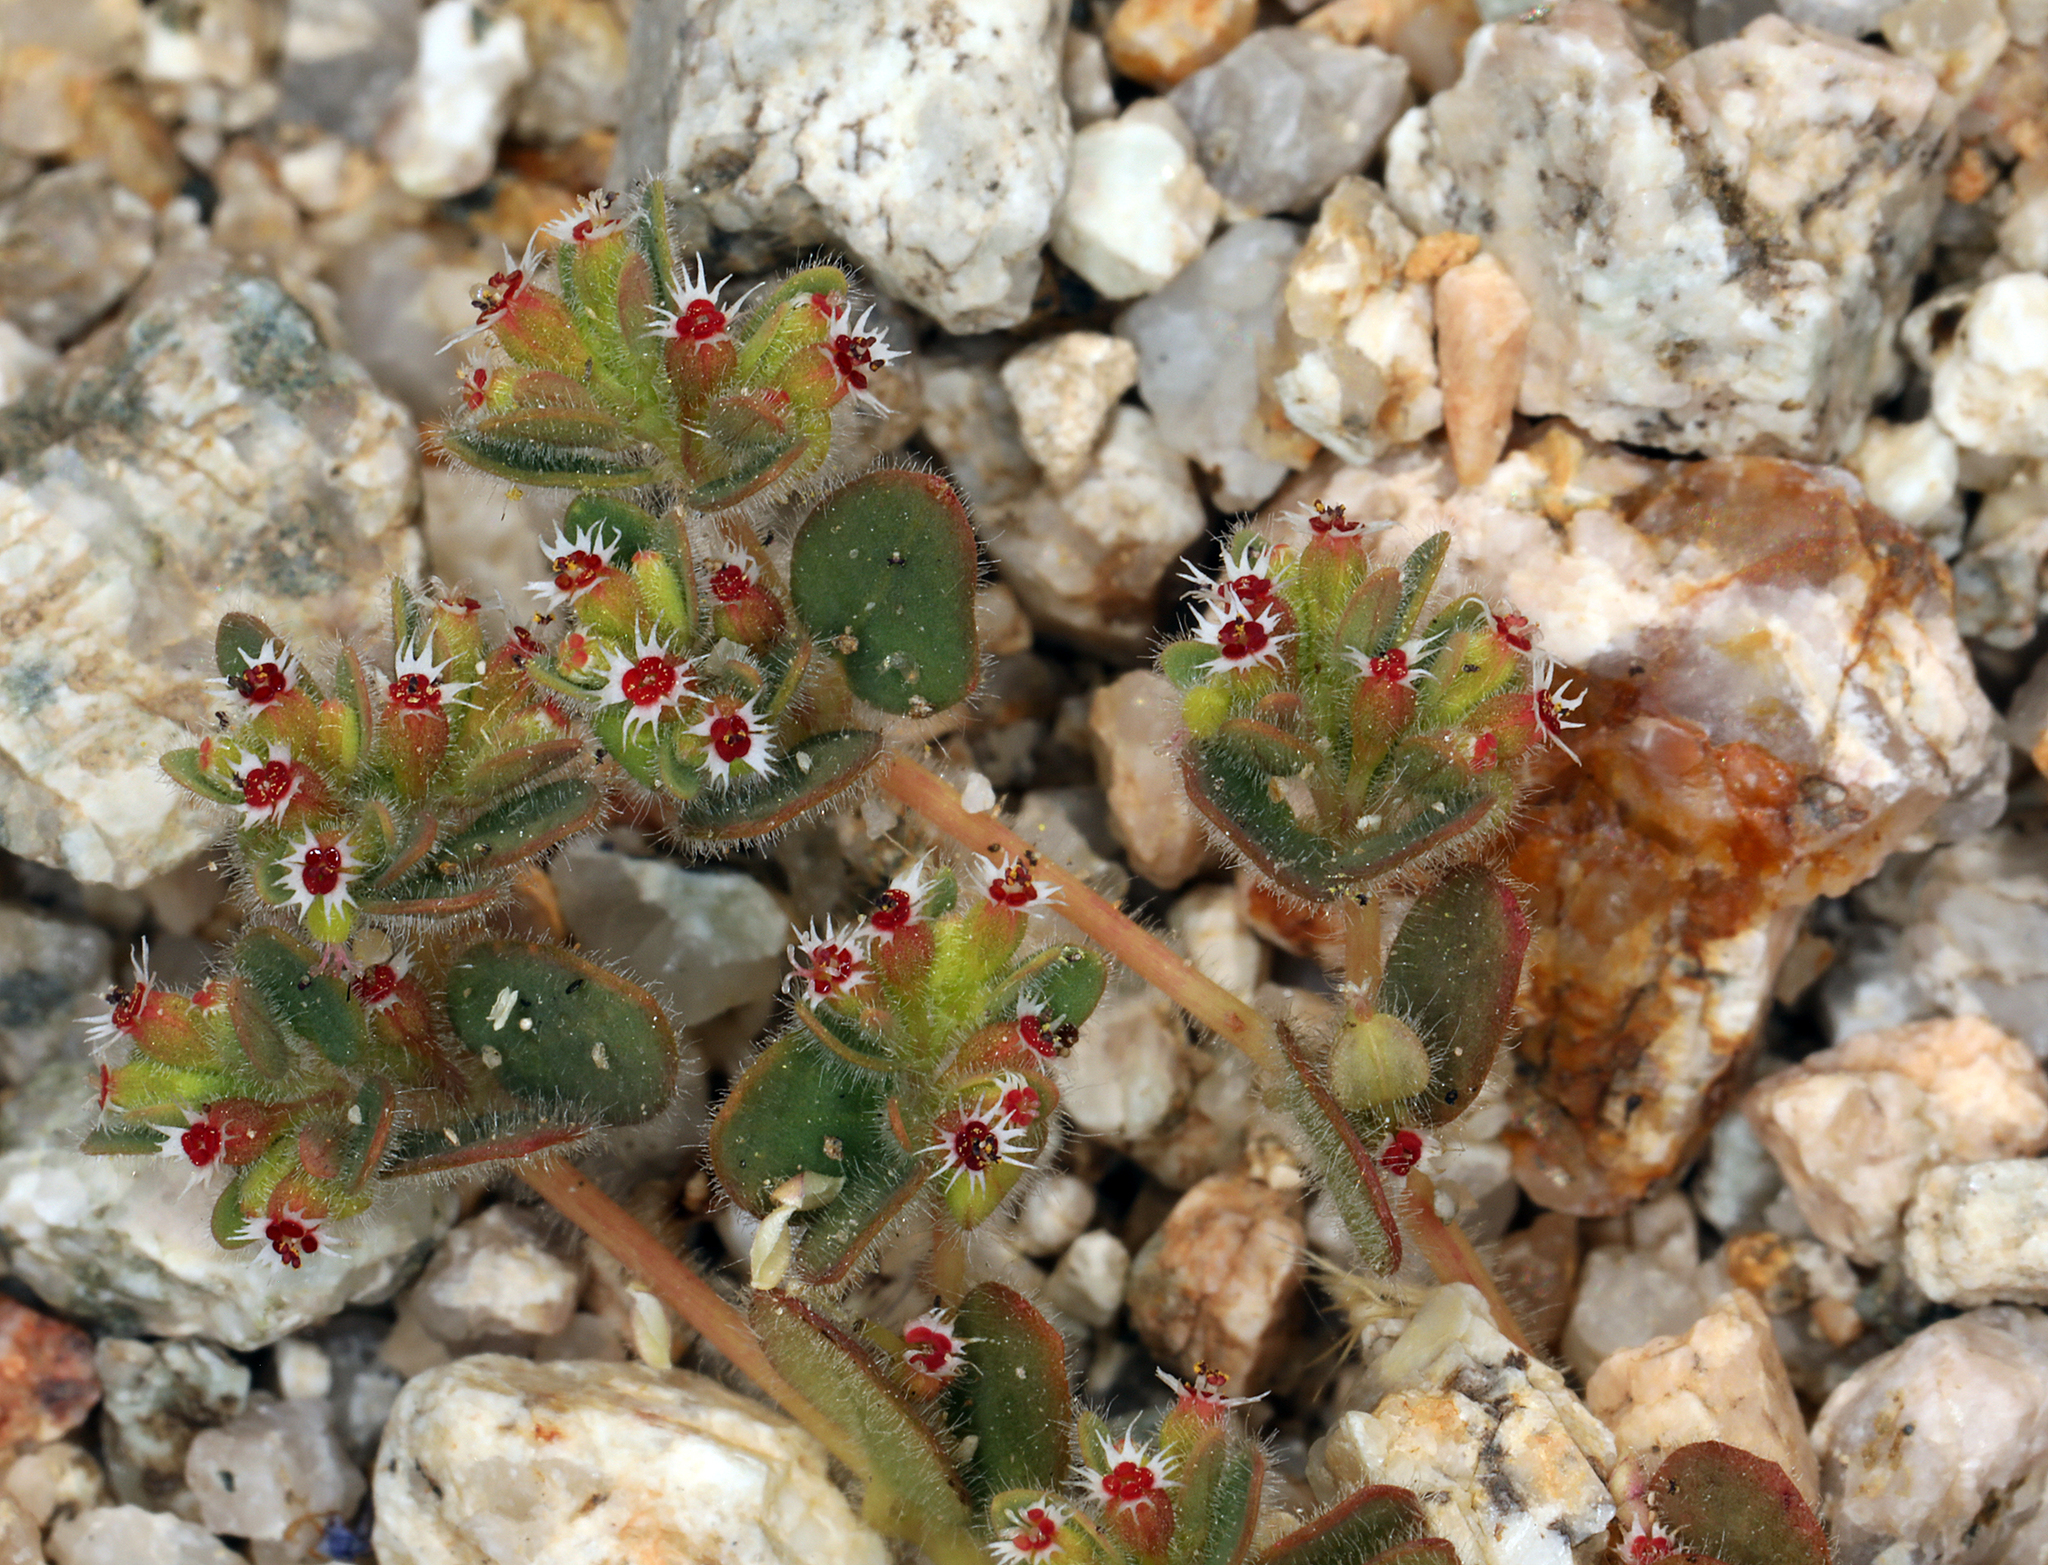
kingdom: Plantae
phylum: Tracheophyta
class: Magnoliopsida
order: Malpighiales
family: Euphorbiaceae
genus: Euphorbia
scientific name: Euphorbia setiloba
